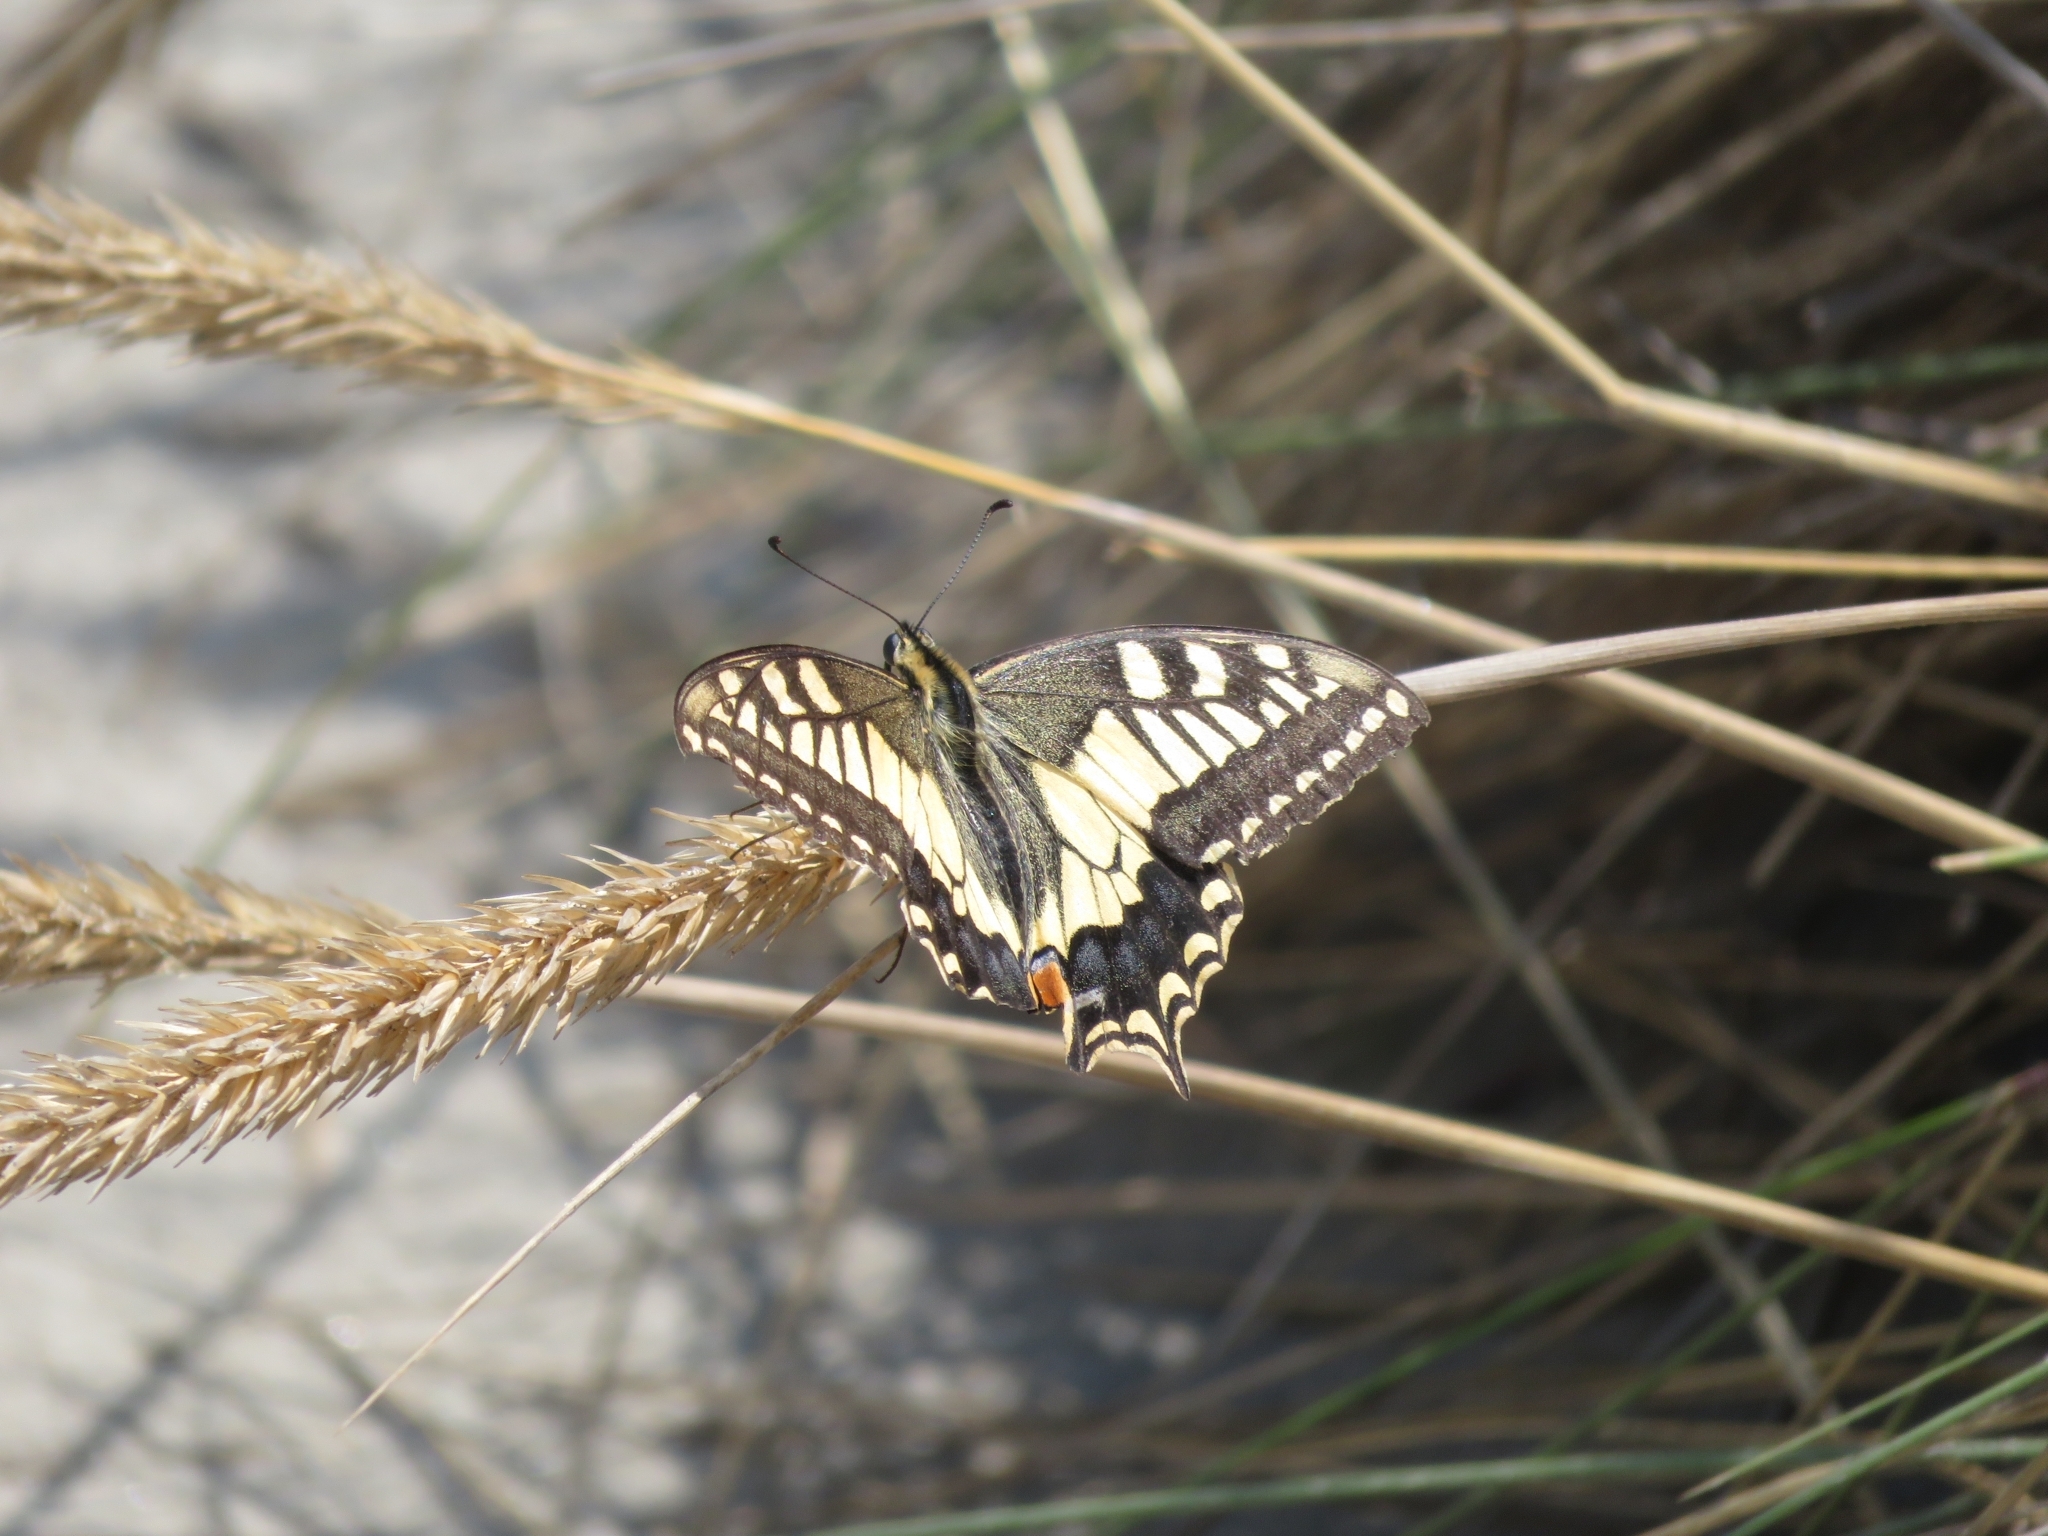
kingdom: Animalia
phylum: Arthropoda
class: Insecta
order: Lepidoptera
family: Papilionidae
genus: Papilio
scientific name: Papilio machaon
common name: Swallowtail
